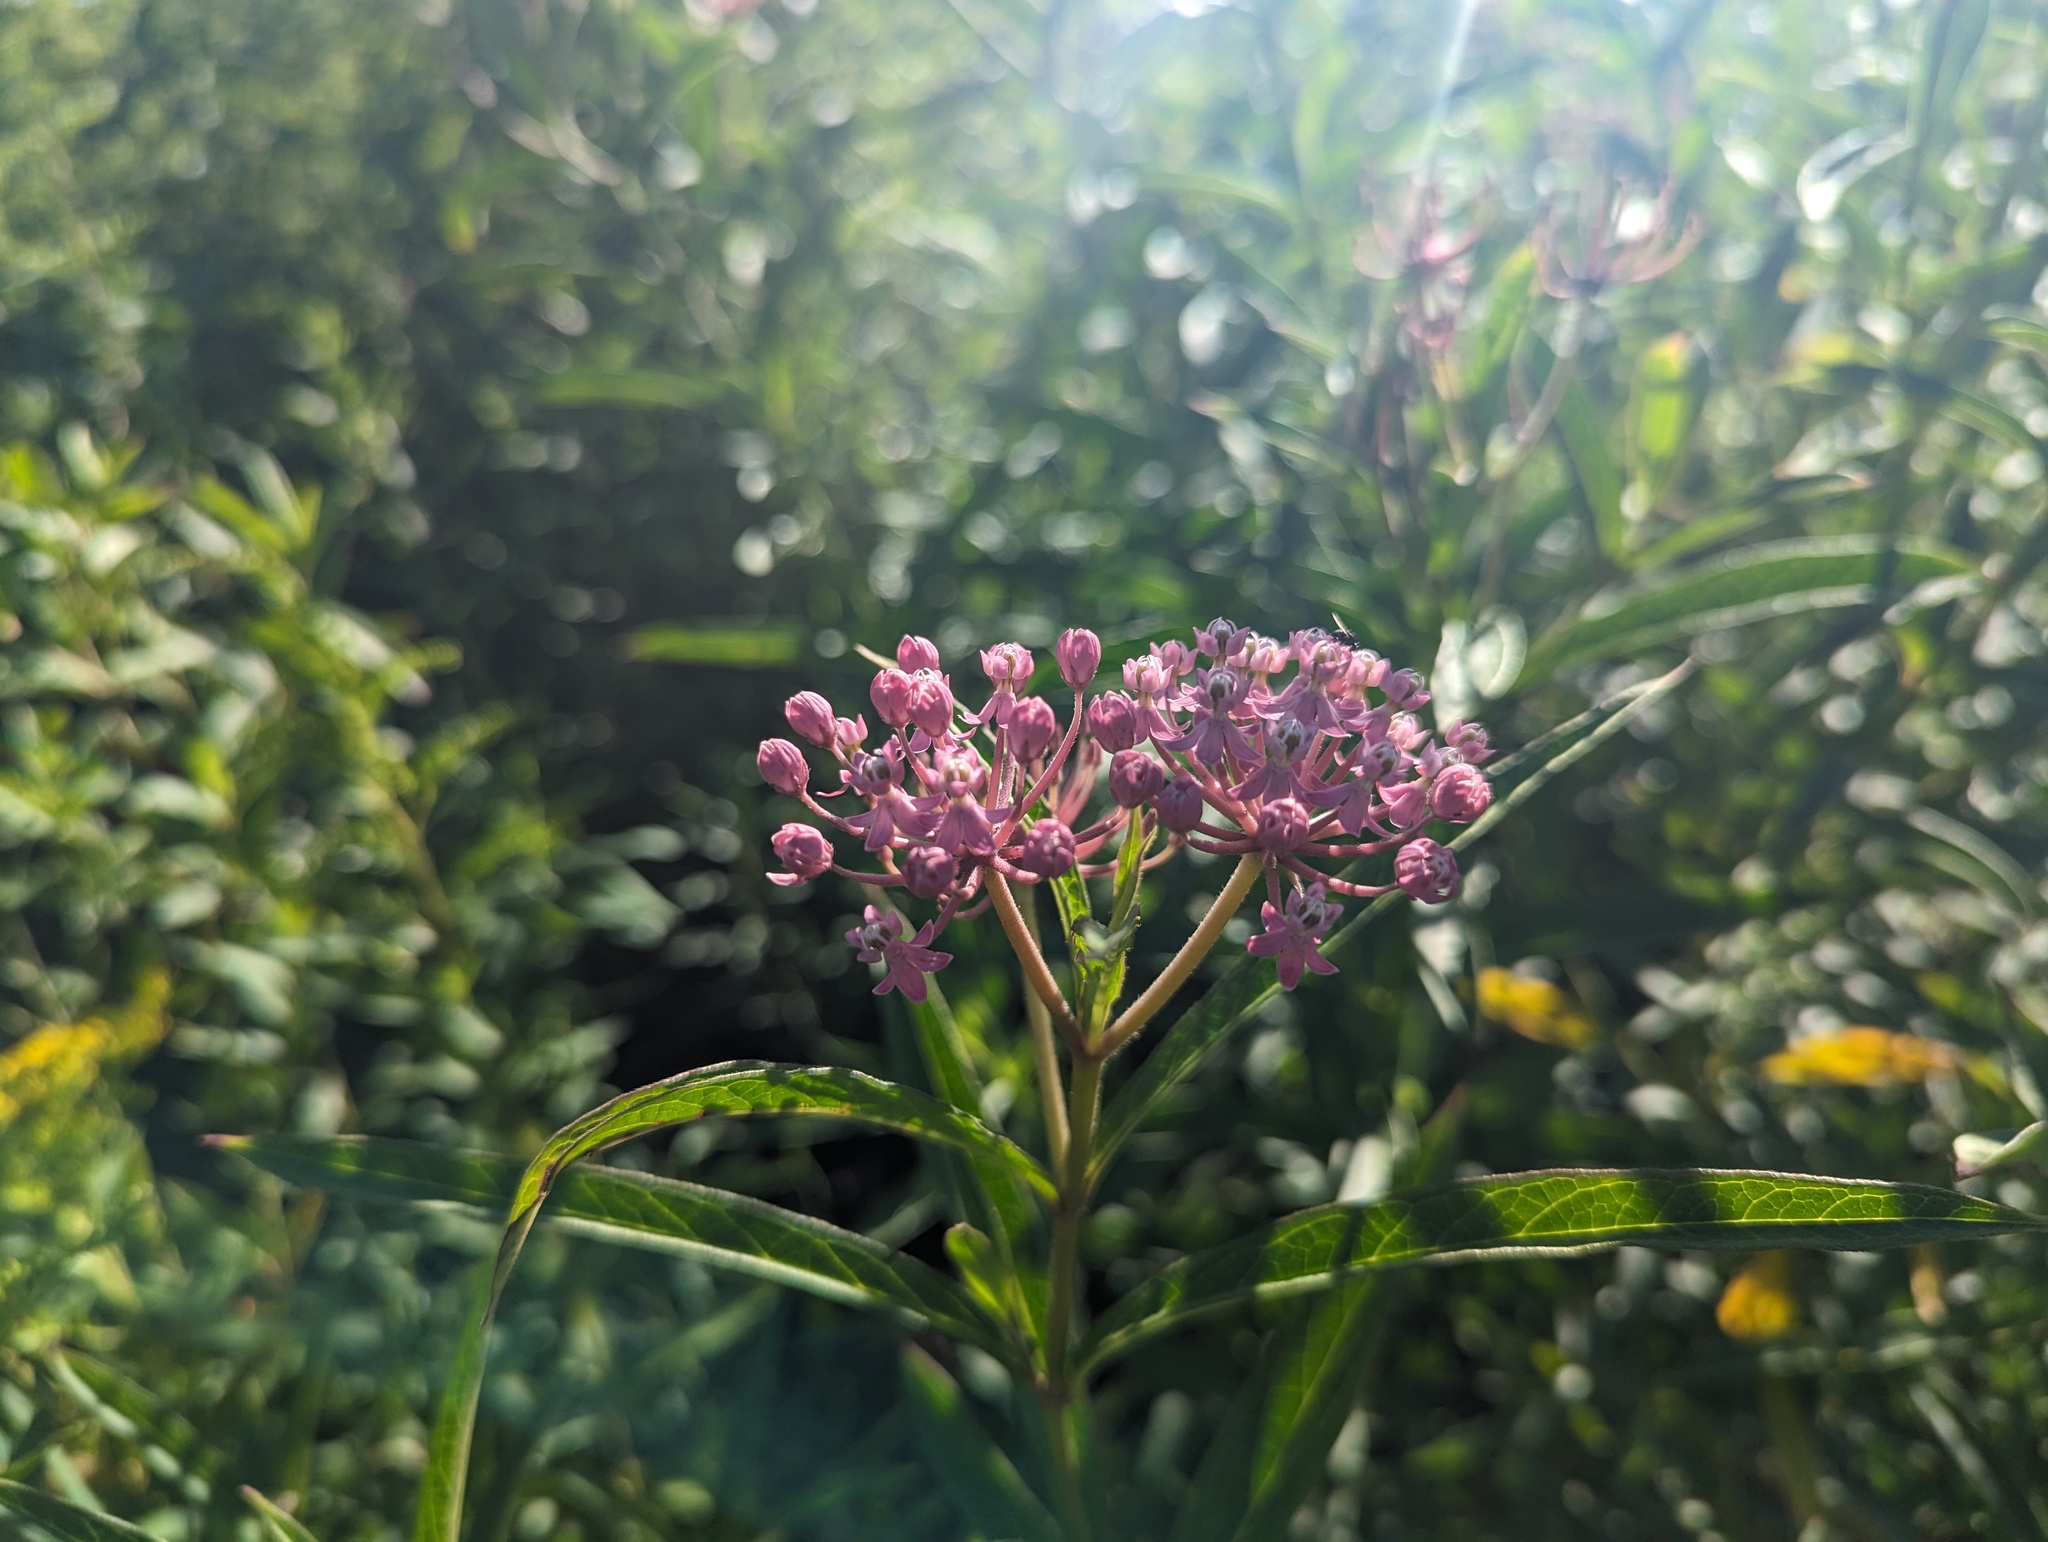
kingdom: Plantae
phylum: Tracheophyta
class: Magnoliopsida
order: Gentianales
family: Apocynaceae
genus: Asclepias
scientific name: Asclepias incarnata
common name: Swamp milkweed
